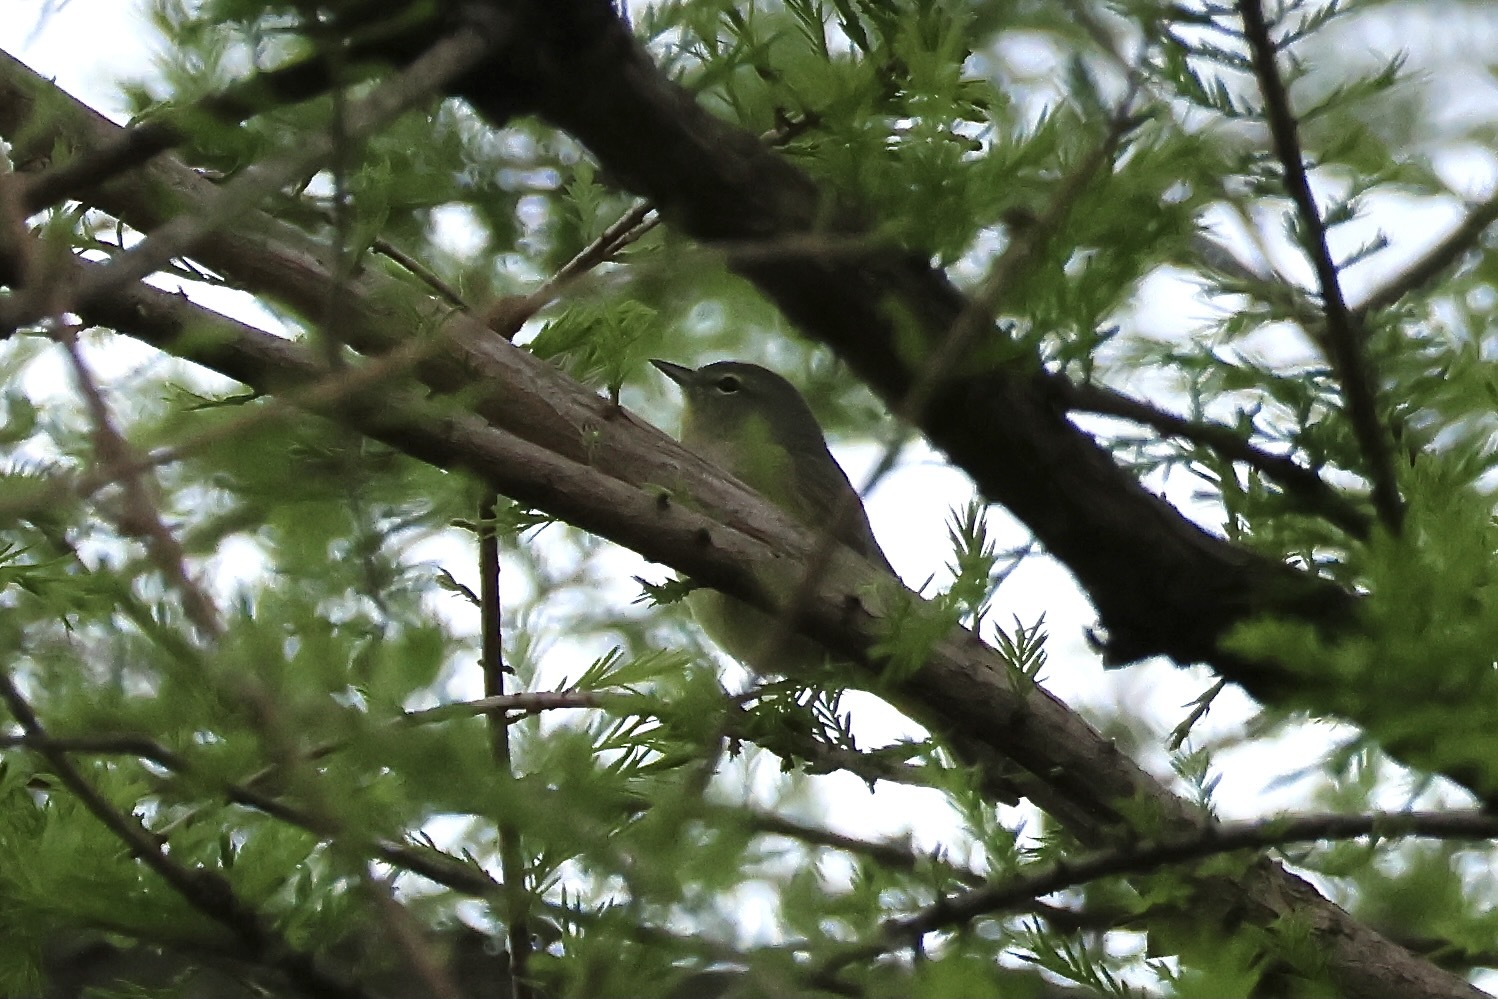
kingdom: Animalia
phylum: Chordata
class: Aves
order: Passeriformes
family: Parulidae
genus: Leiothlypis
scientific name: Leiothlypis celata
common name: Orange-crowned warbler
